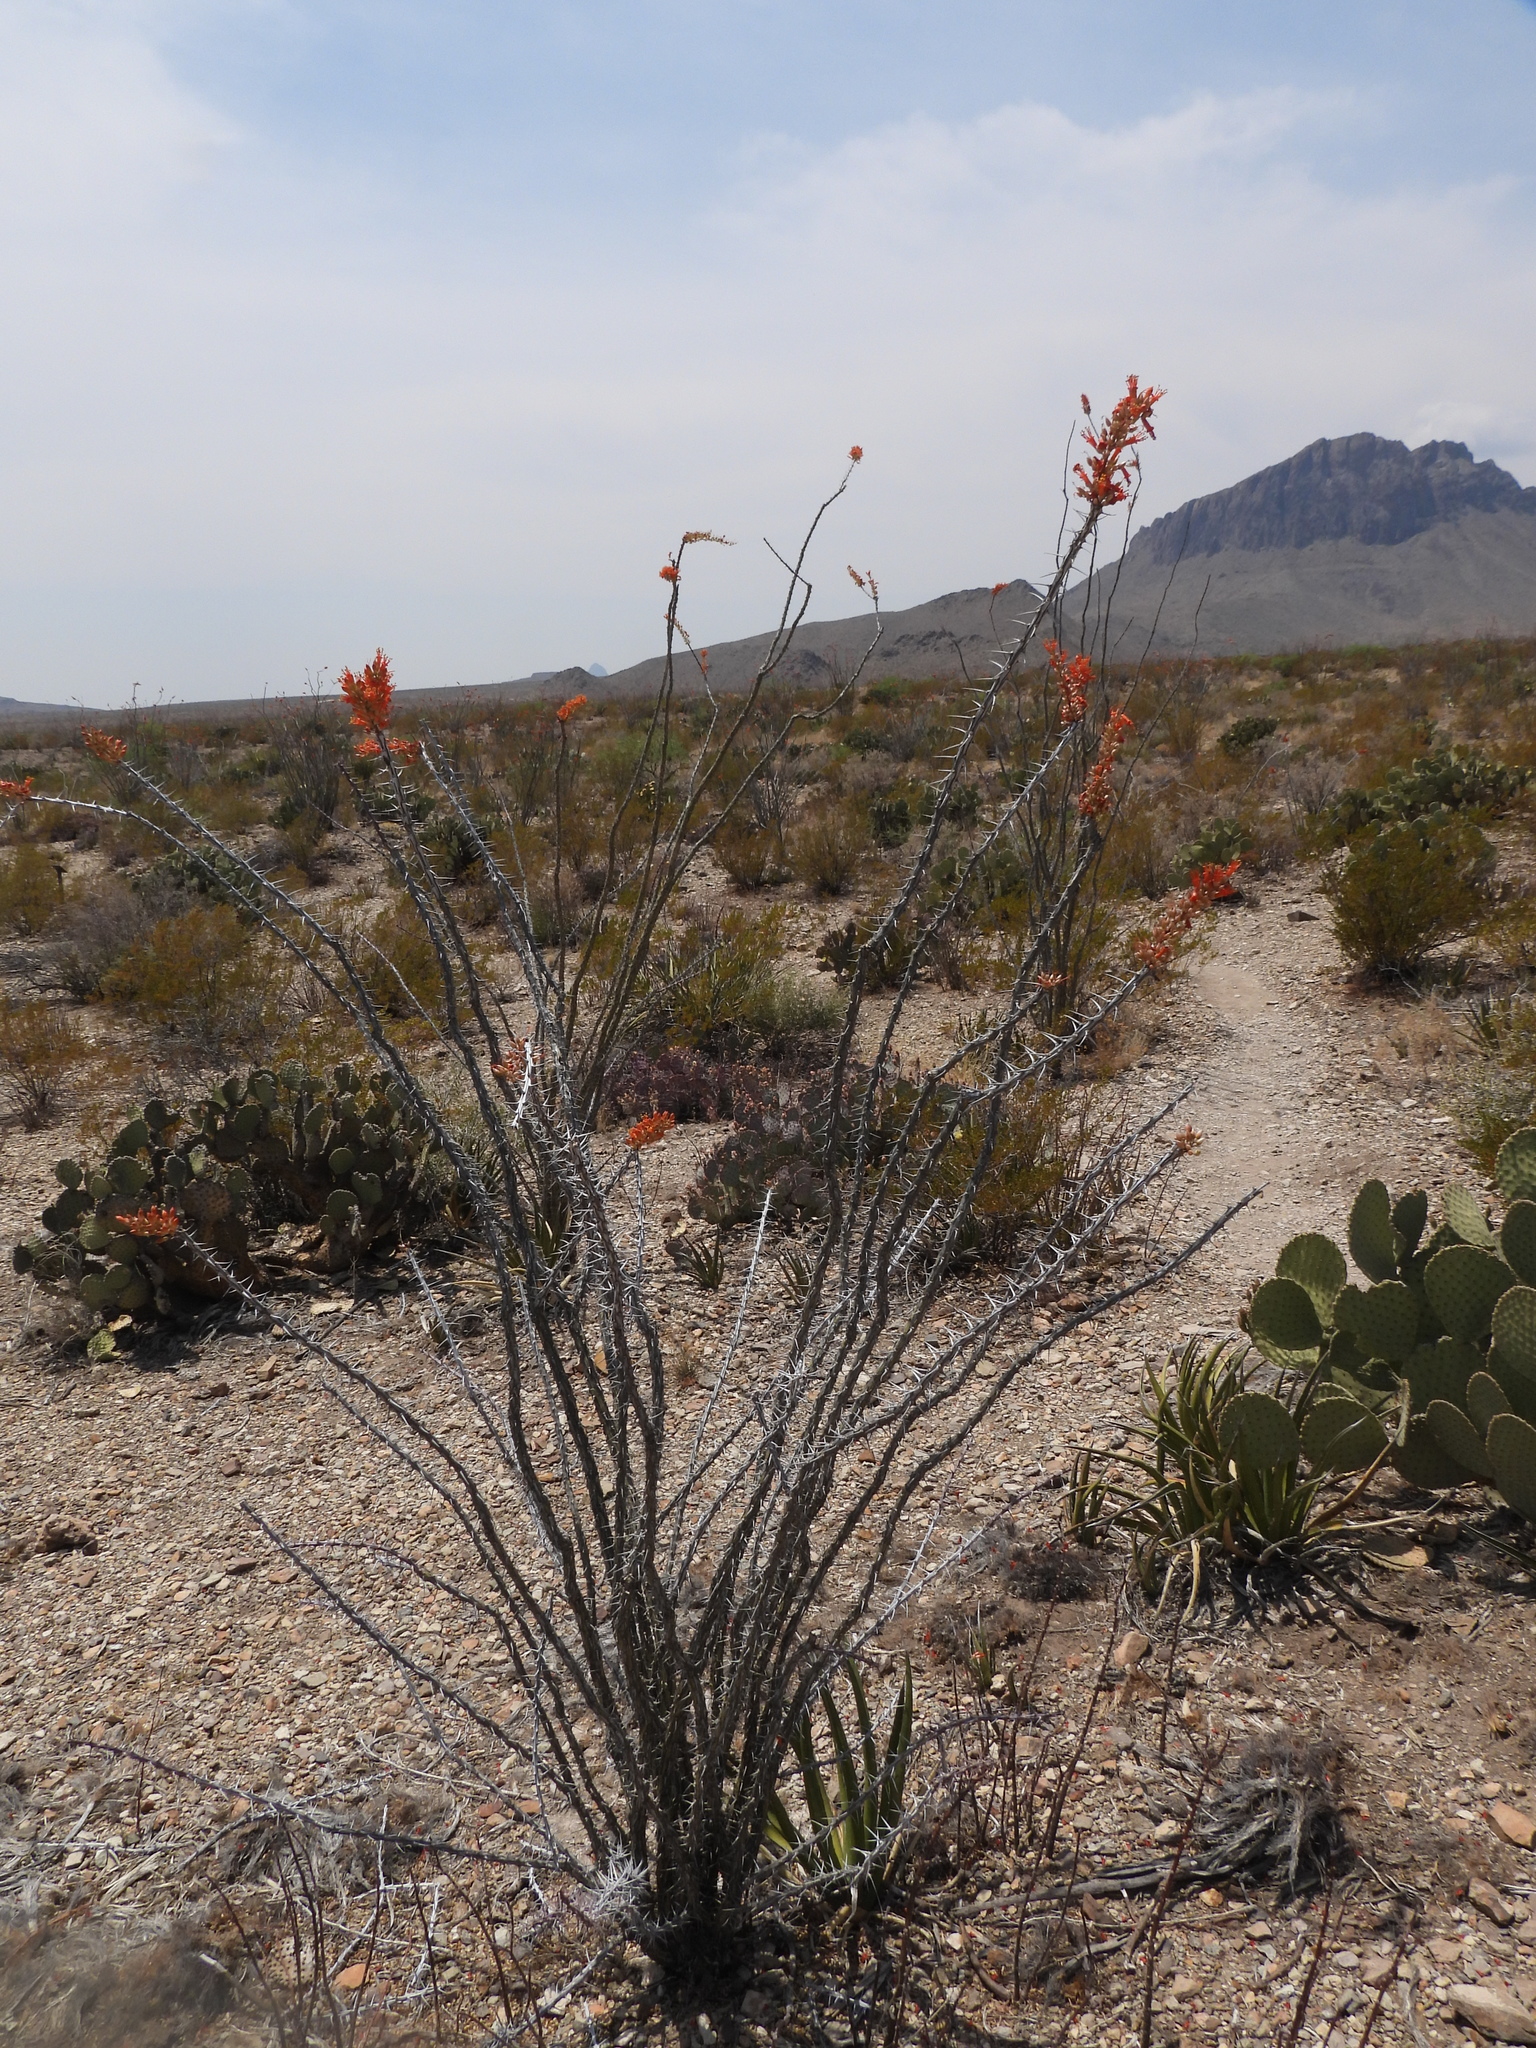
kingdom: Plantae
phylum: Tracheophyta
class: Magnoliopsida
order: Ericales
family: Fouquieriaceae
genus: Fouquieria
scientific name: Fouquieria splendens
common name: Vine-cactus
